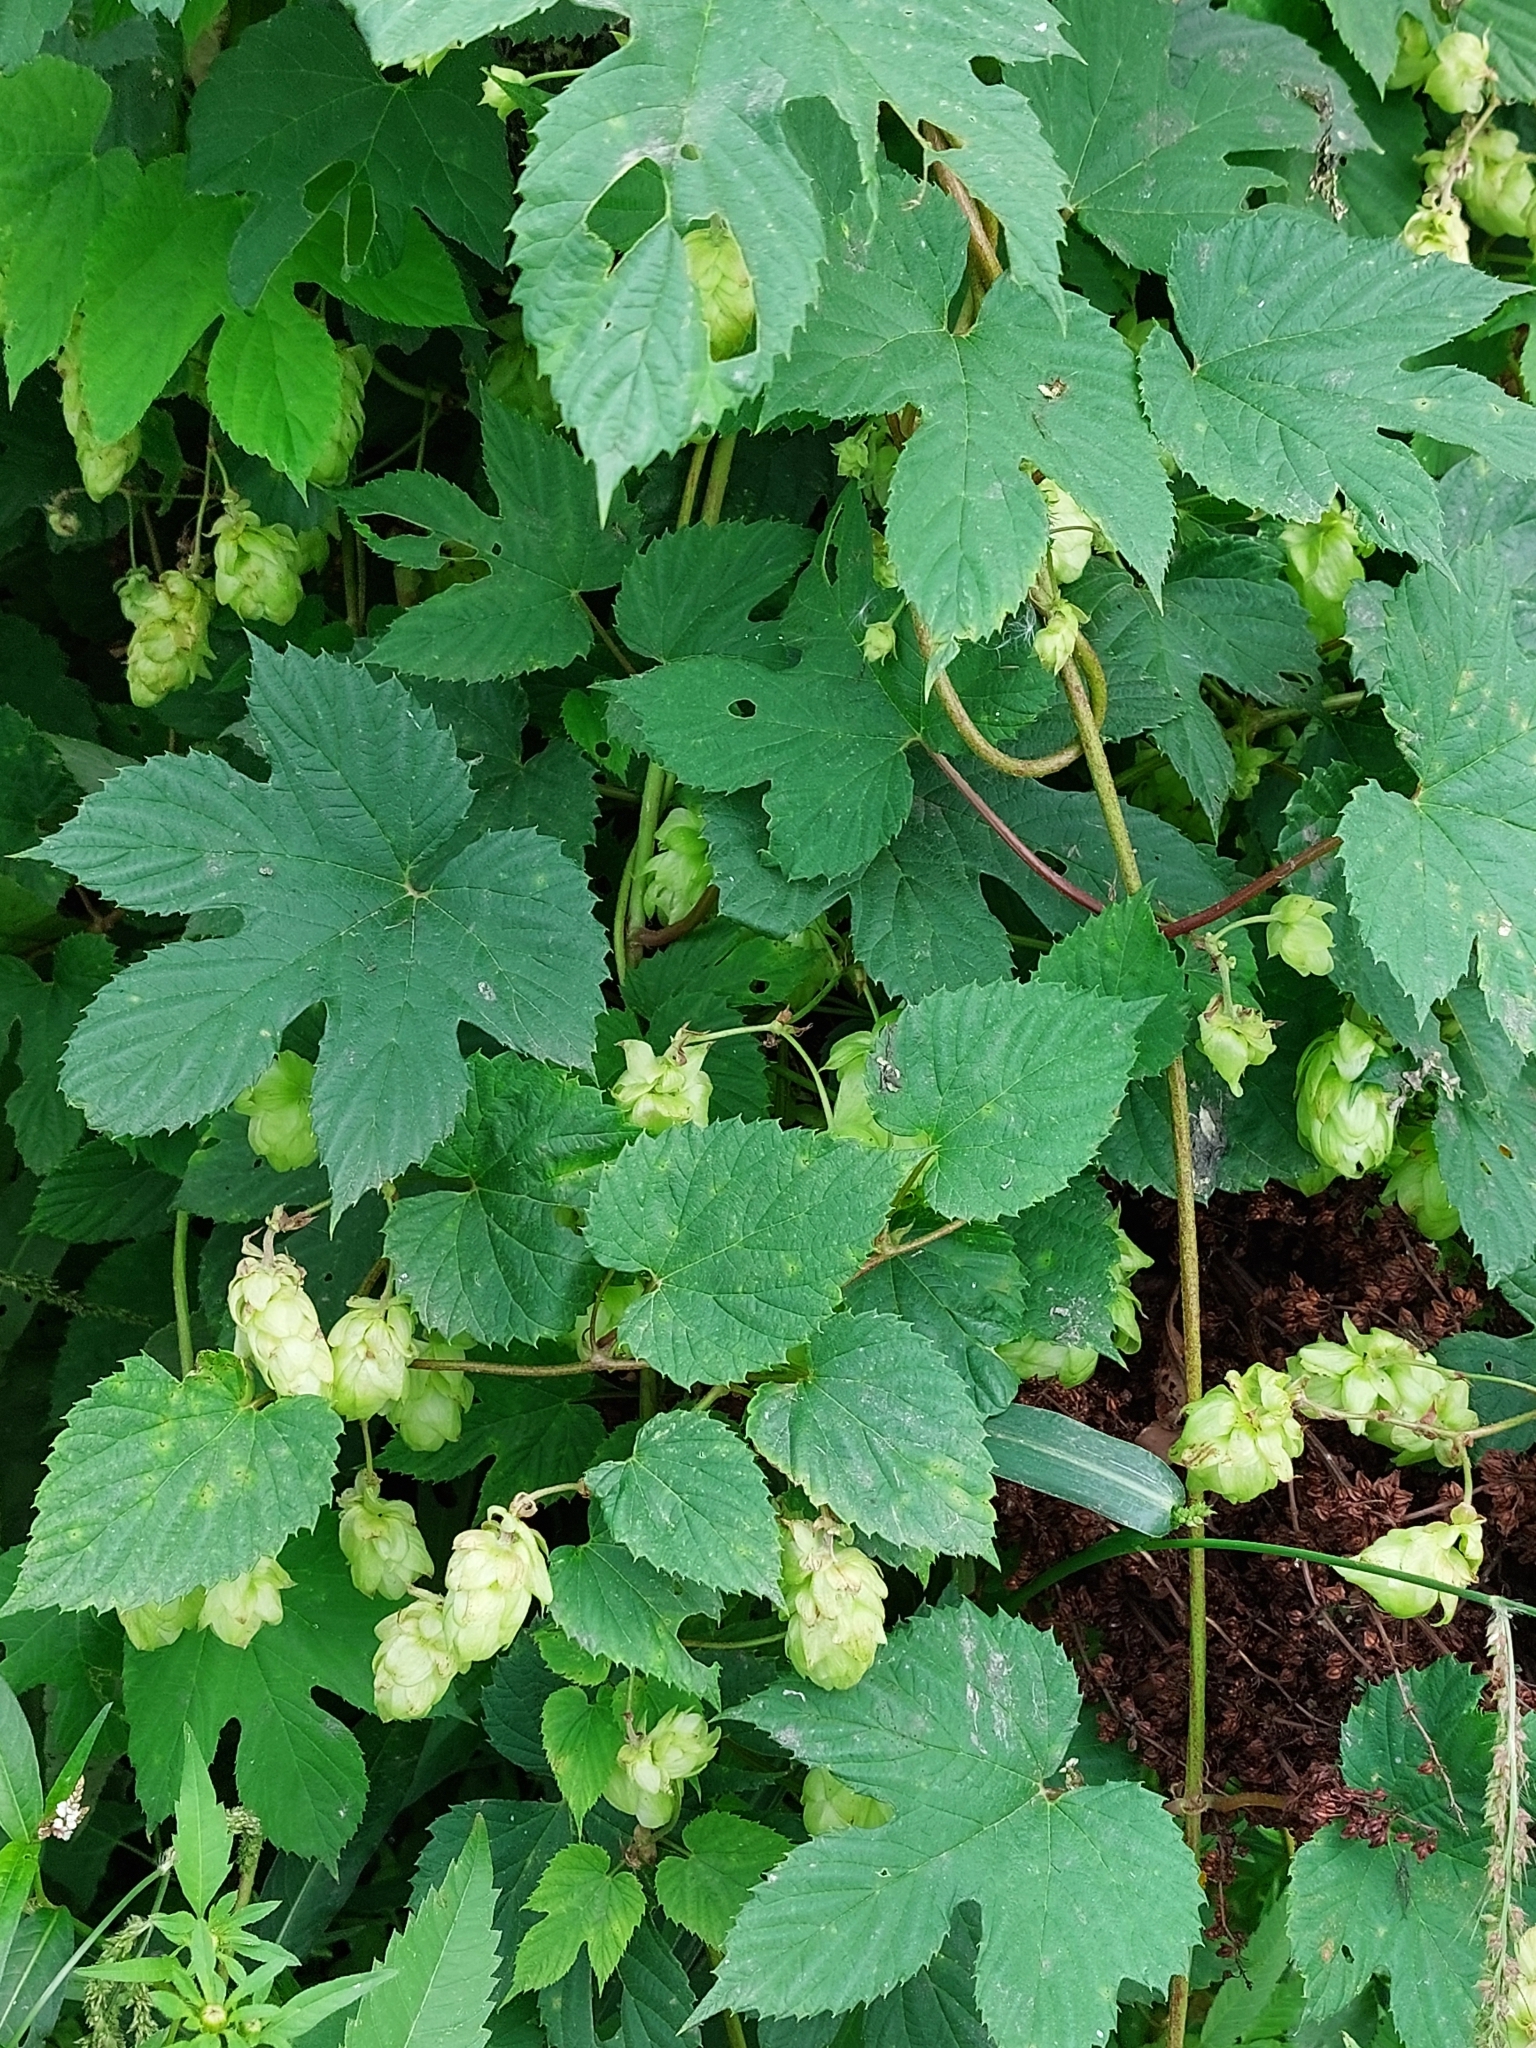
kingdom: Plantae
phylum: Tracheophyta
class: Magnoliopsida
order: Rosales
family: Cannabaceae
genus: Humulus
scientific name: Humulus lupulus
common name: Hop
